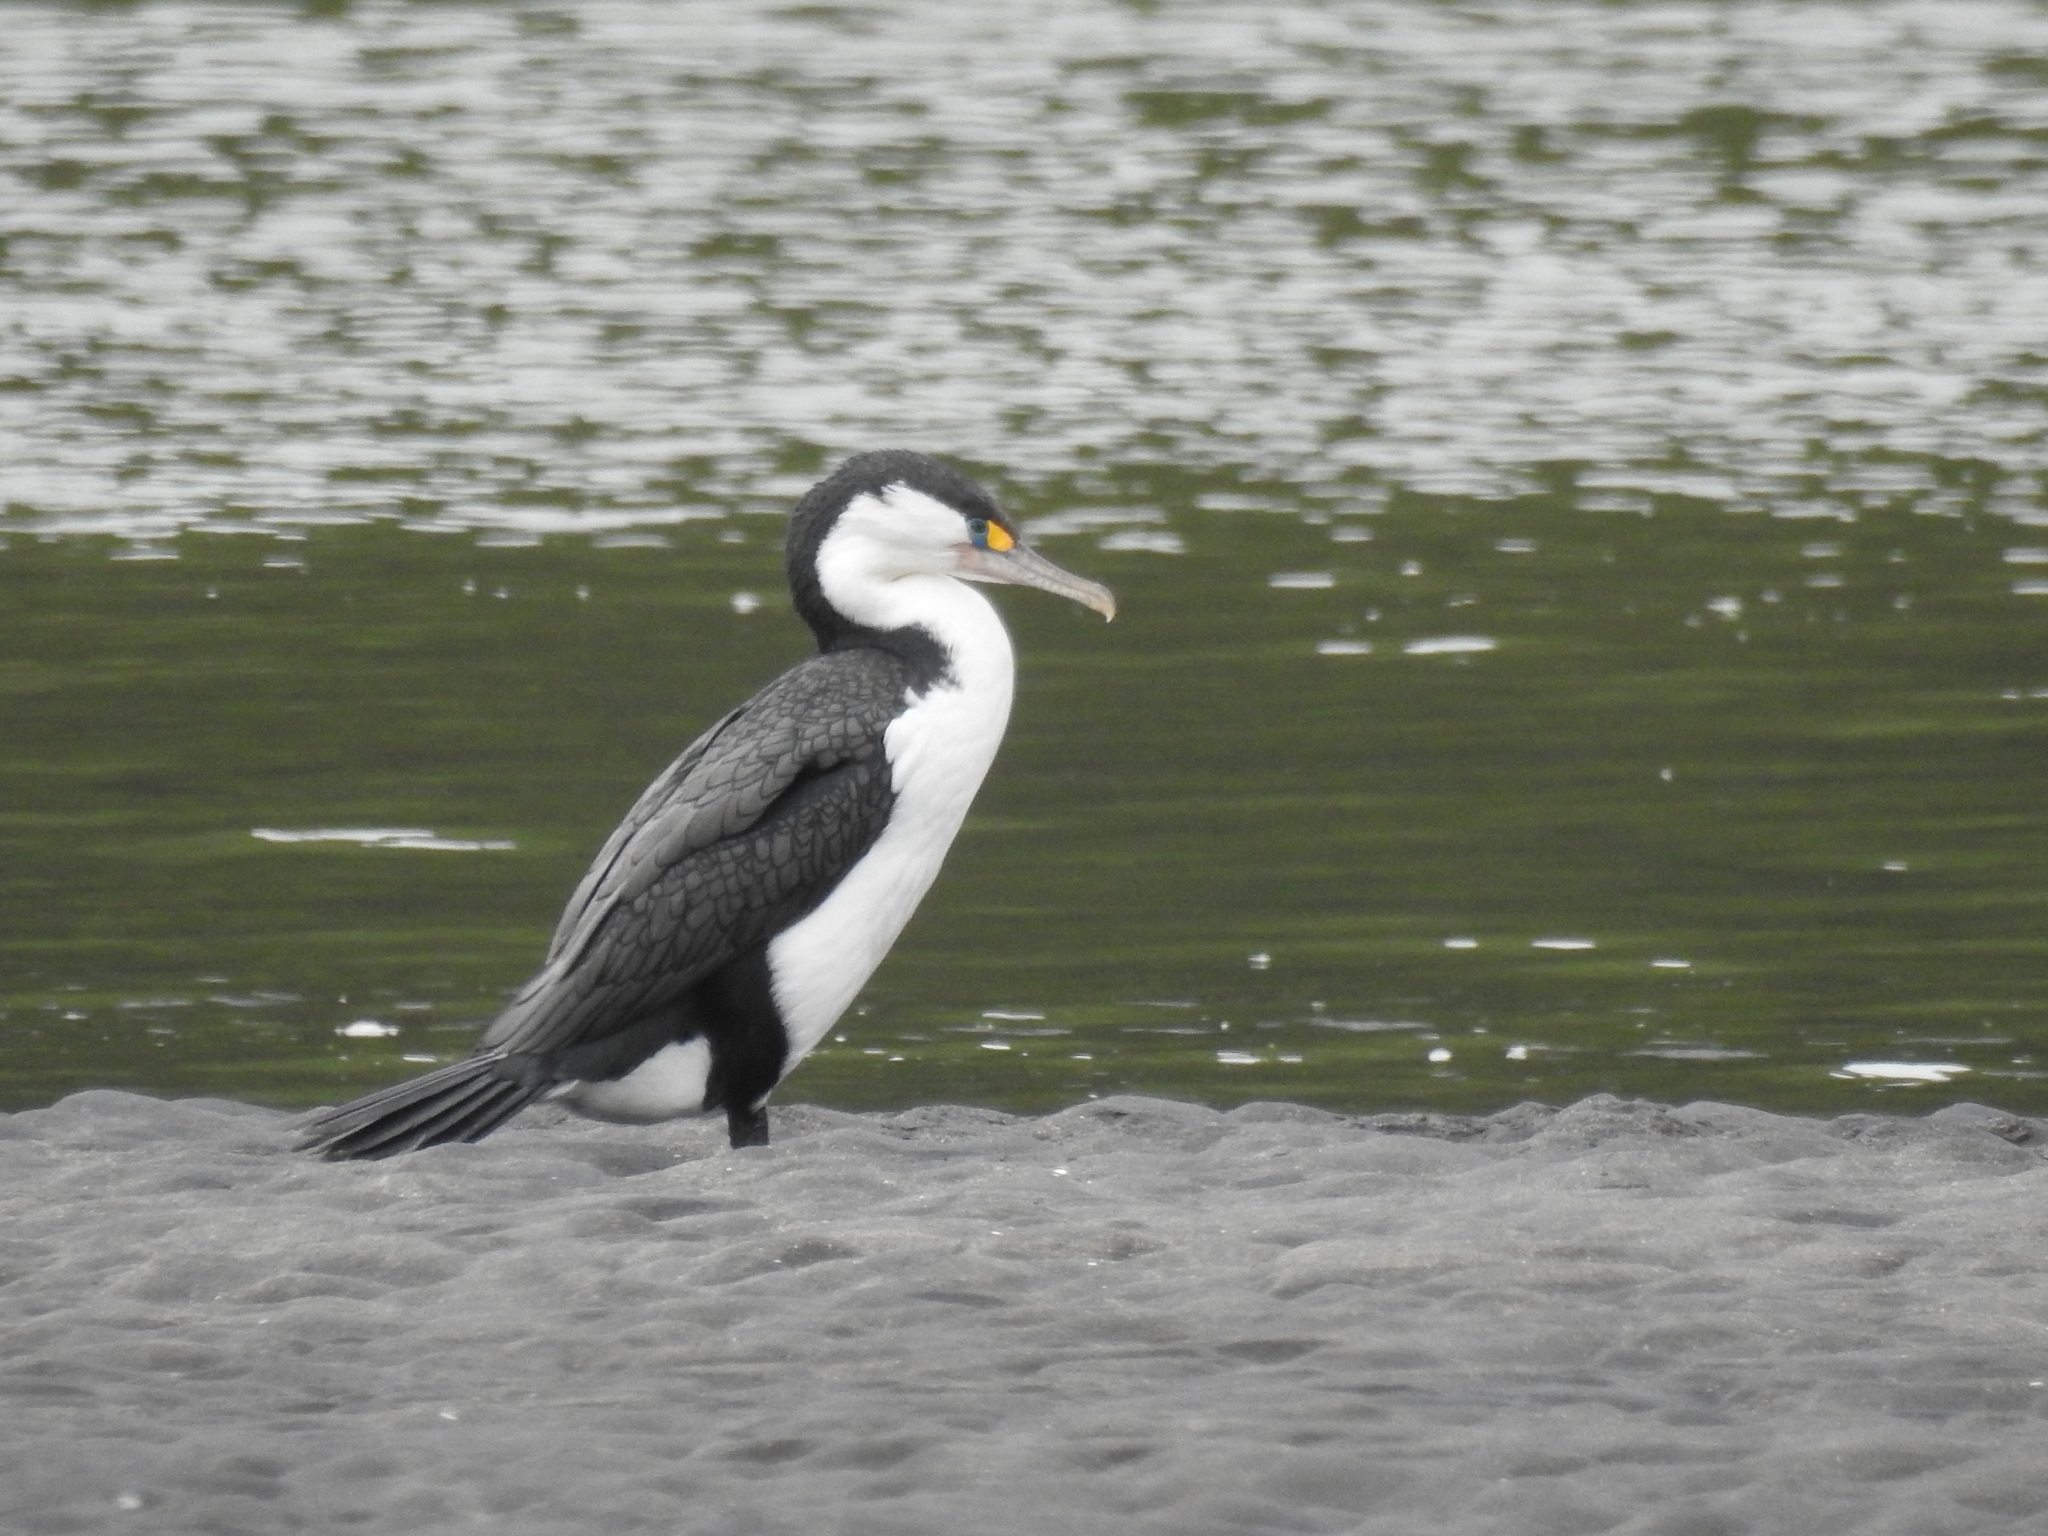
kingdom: Animalia
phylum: Chordata
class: Aves
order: Suliformes
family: Phalacrocoracidae
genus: Phalacrocorax
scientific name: Phalacrocorax varius
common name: Pied cormorant
